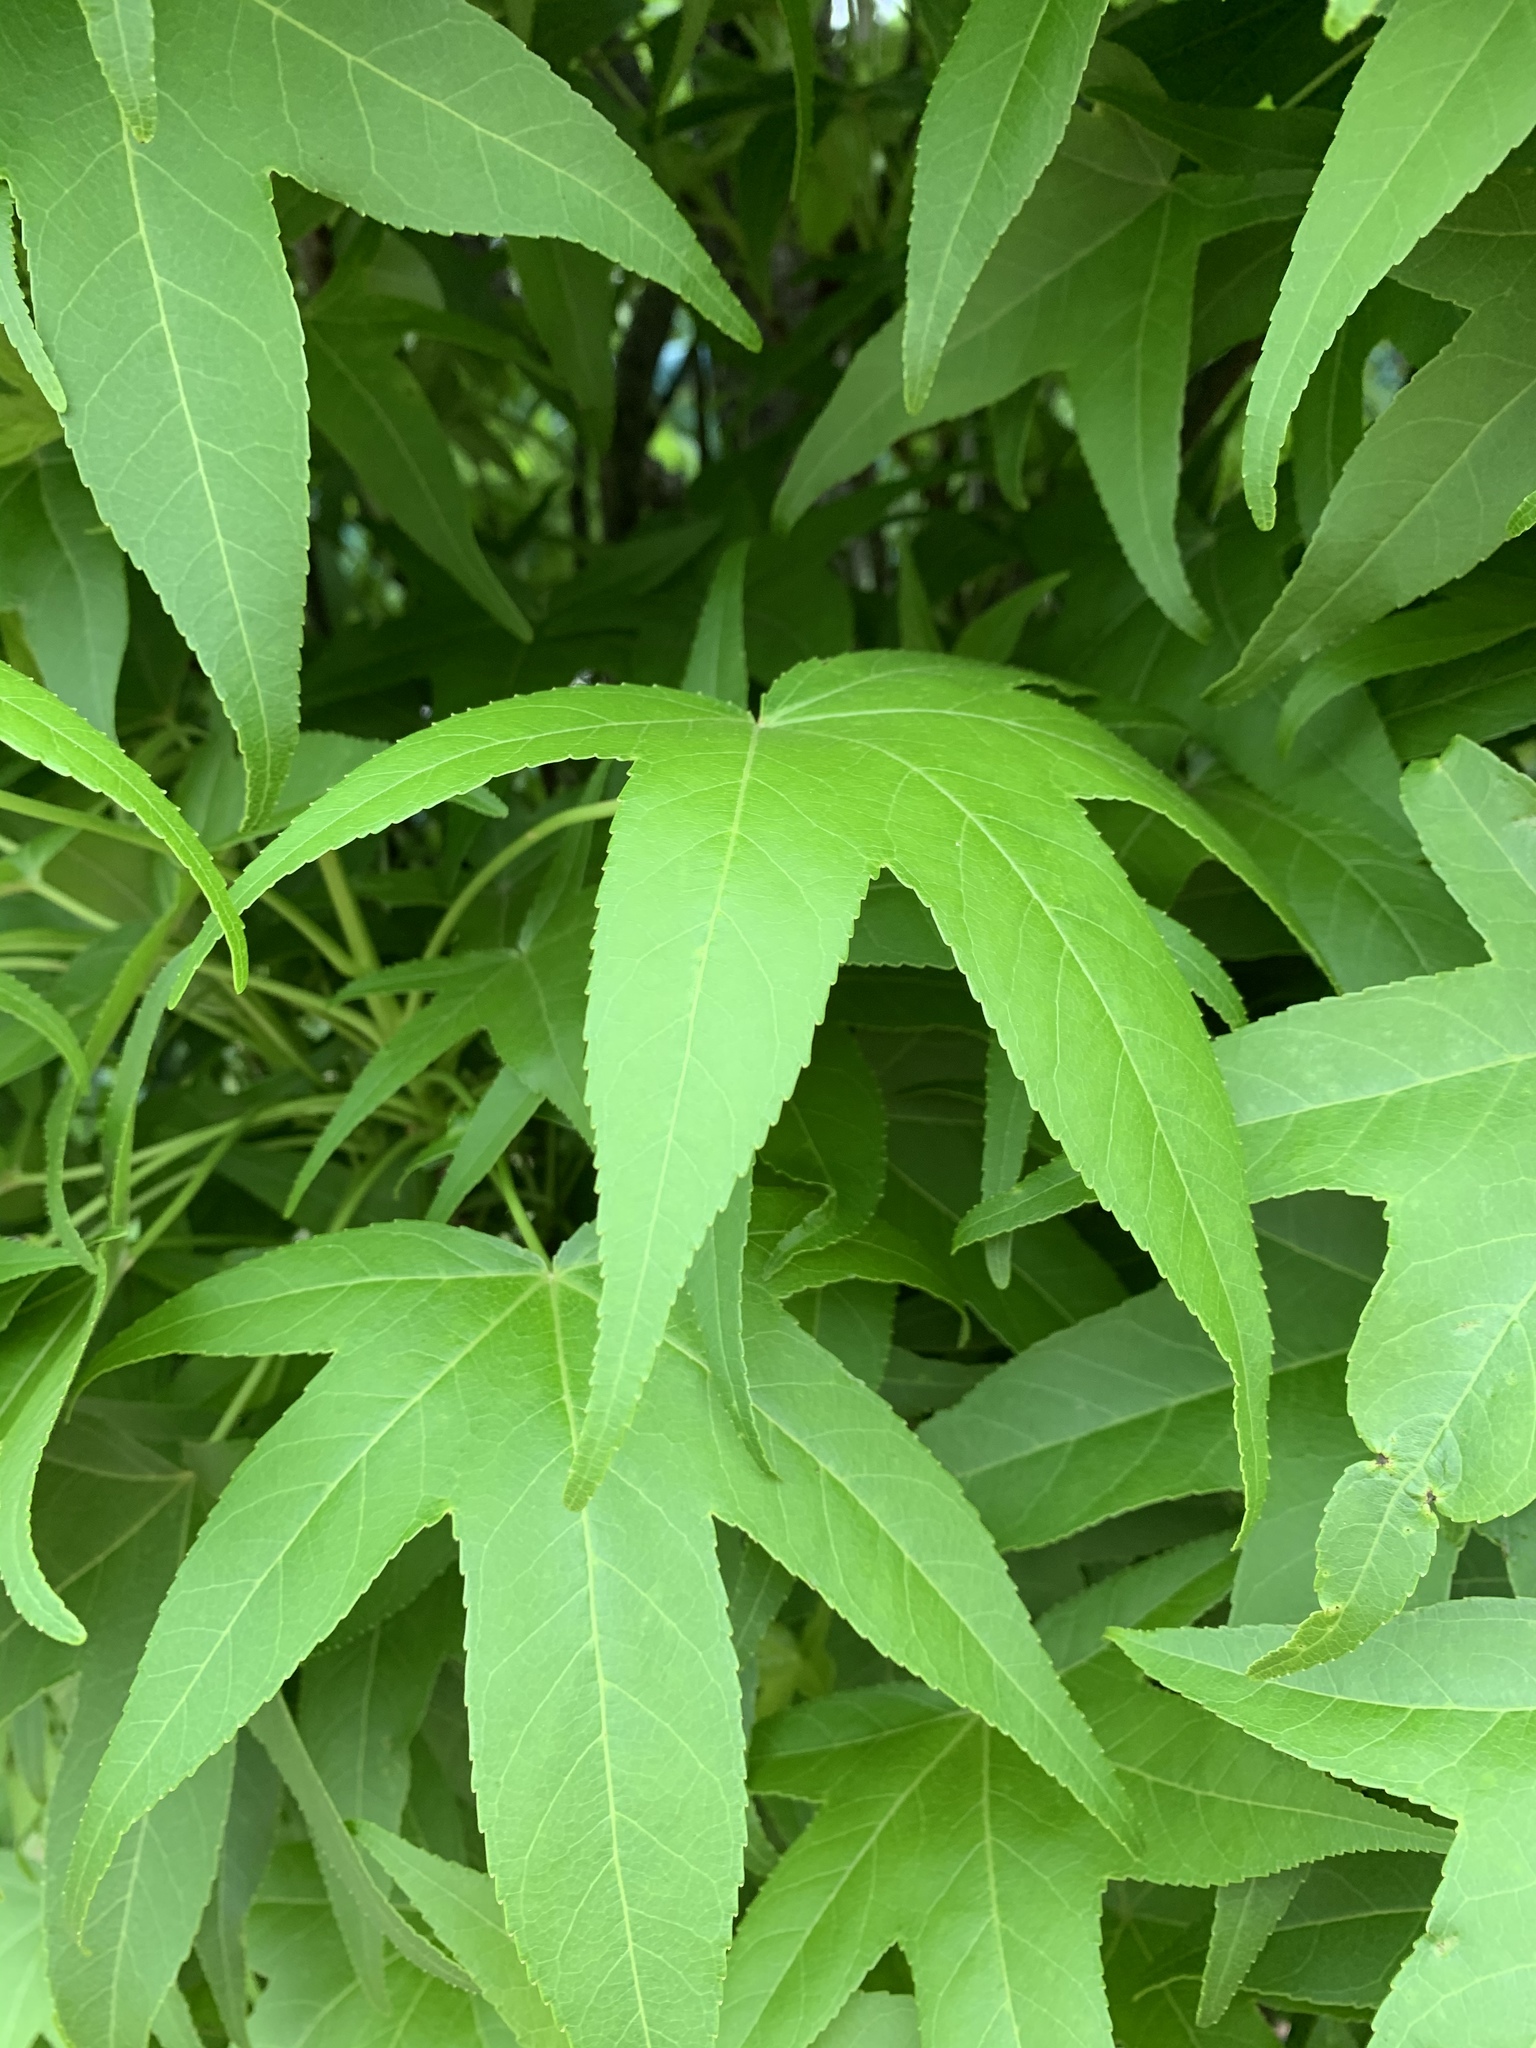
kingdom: Plantae
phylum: Tracheophyta
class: Magnoliopsida
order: Saxifragales
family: Altingiaceae
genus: Liquidambar
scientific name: Liquidambar styraciflua
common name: Sweet gum
